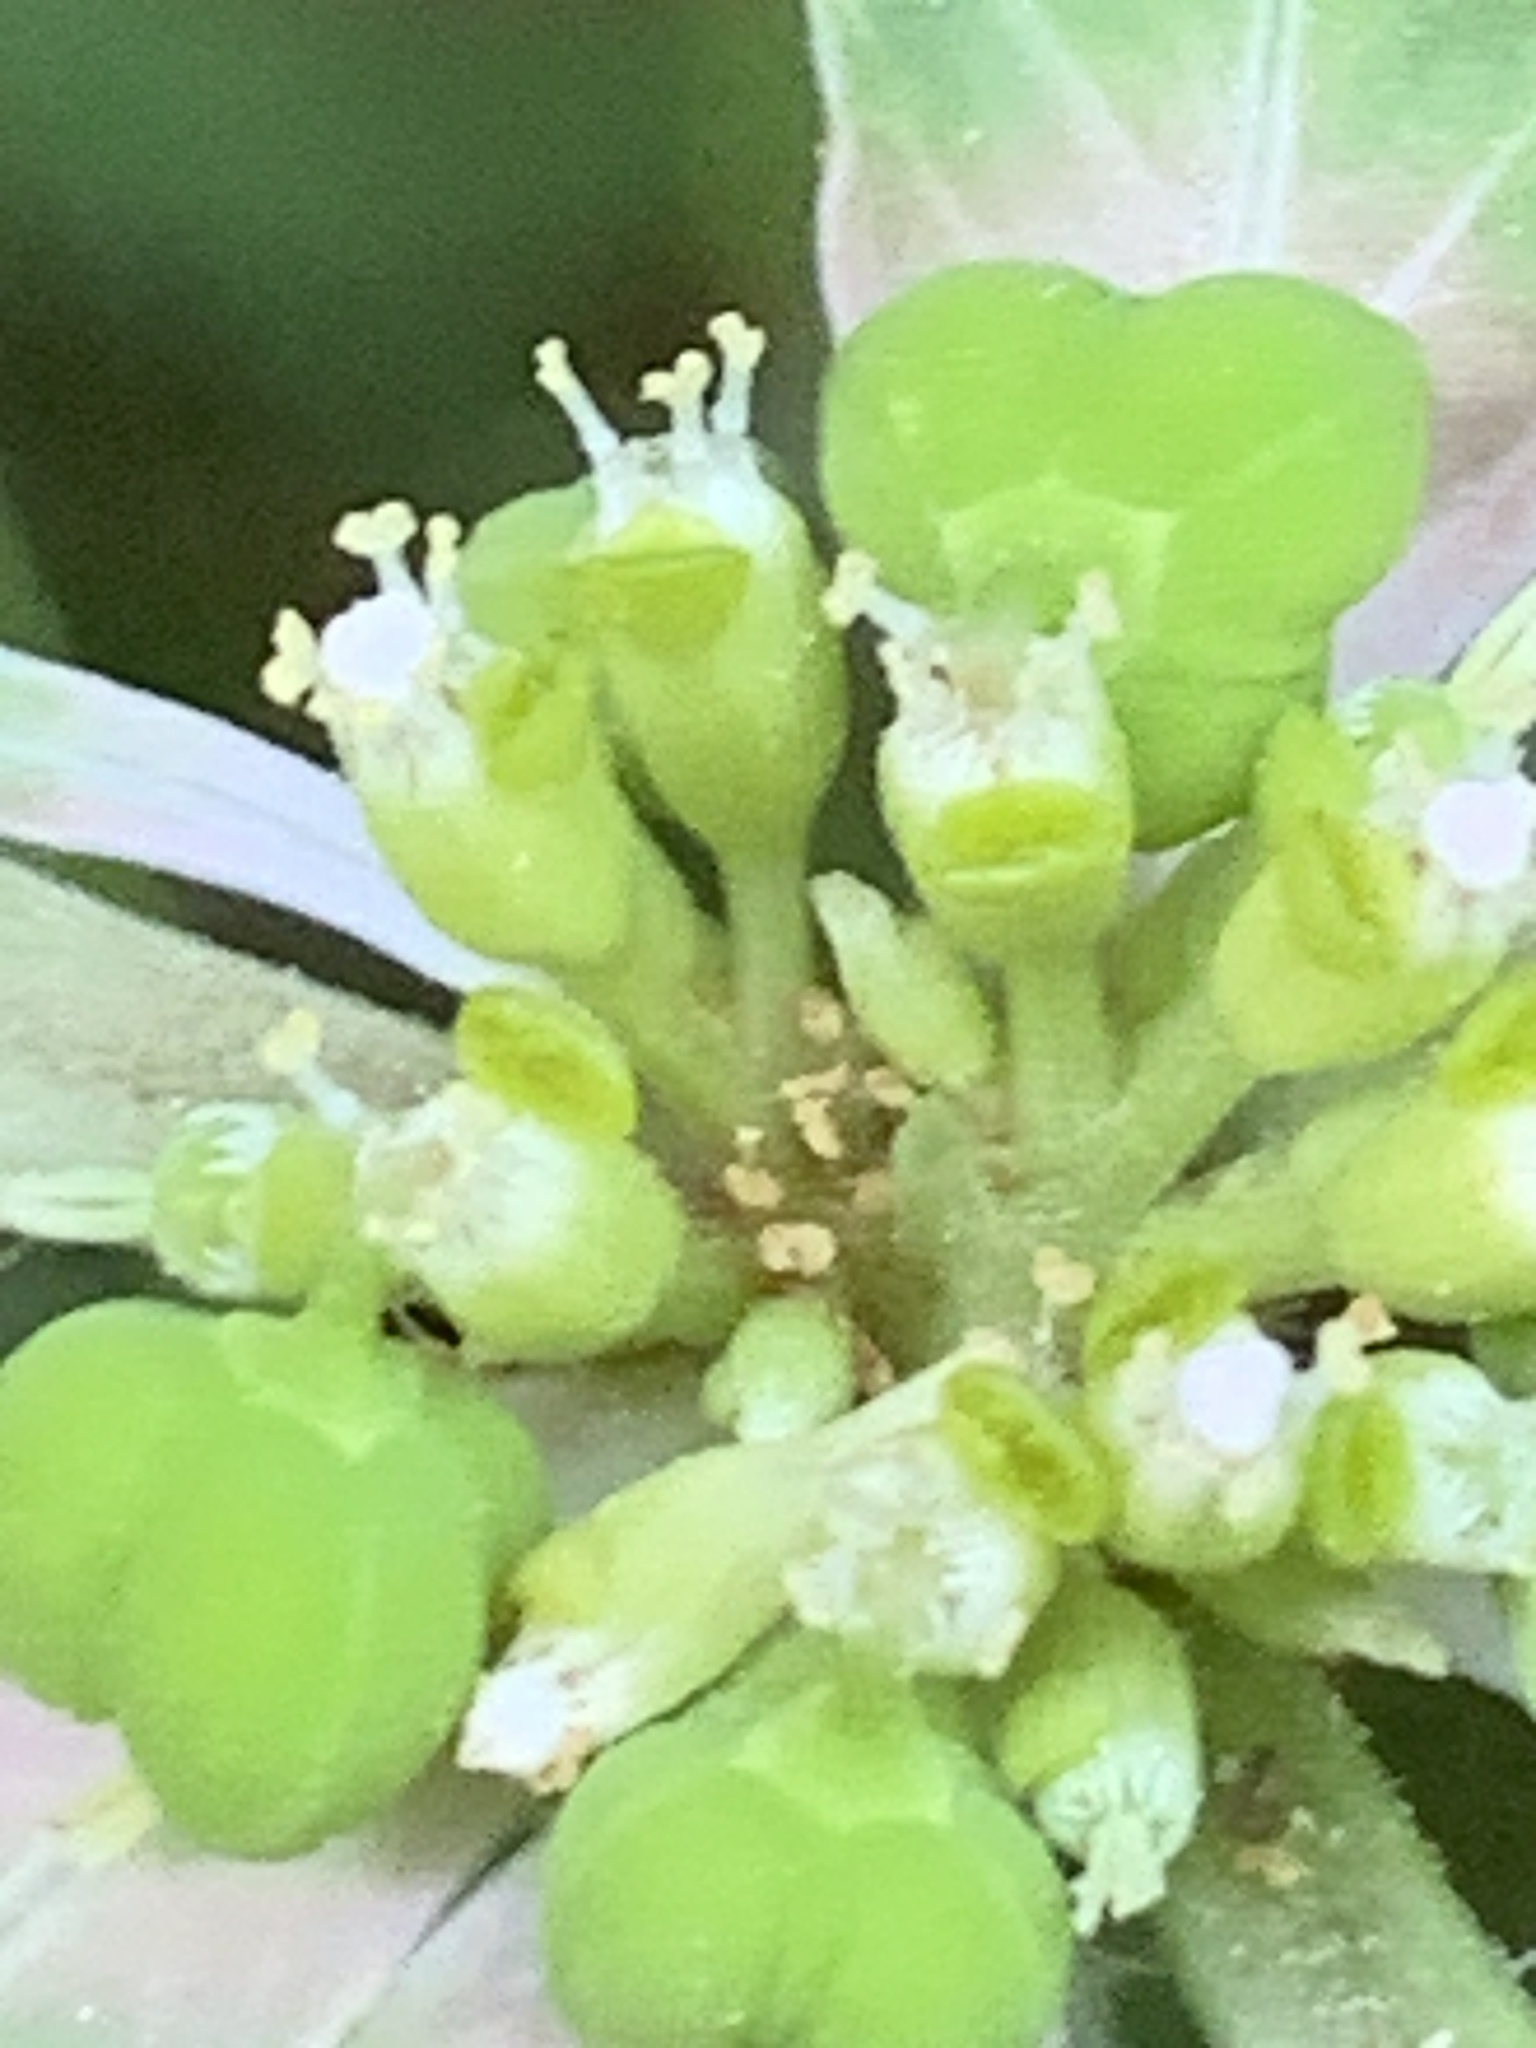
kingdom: Plantae
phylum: Tracheophyta
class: Magnoliopsida
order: Malpighiales
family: Euphorbiaceae
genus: Euphorbia
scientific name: Euphorbia dentata
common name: Dentate spurge
